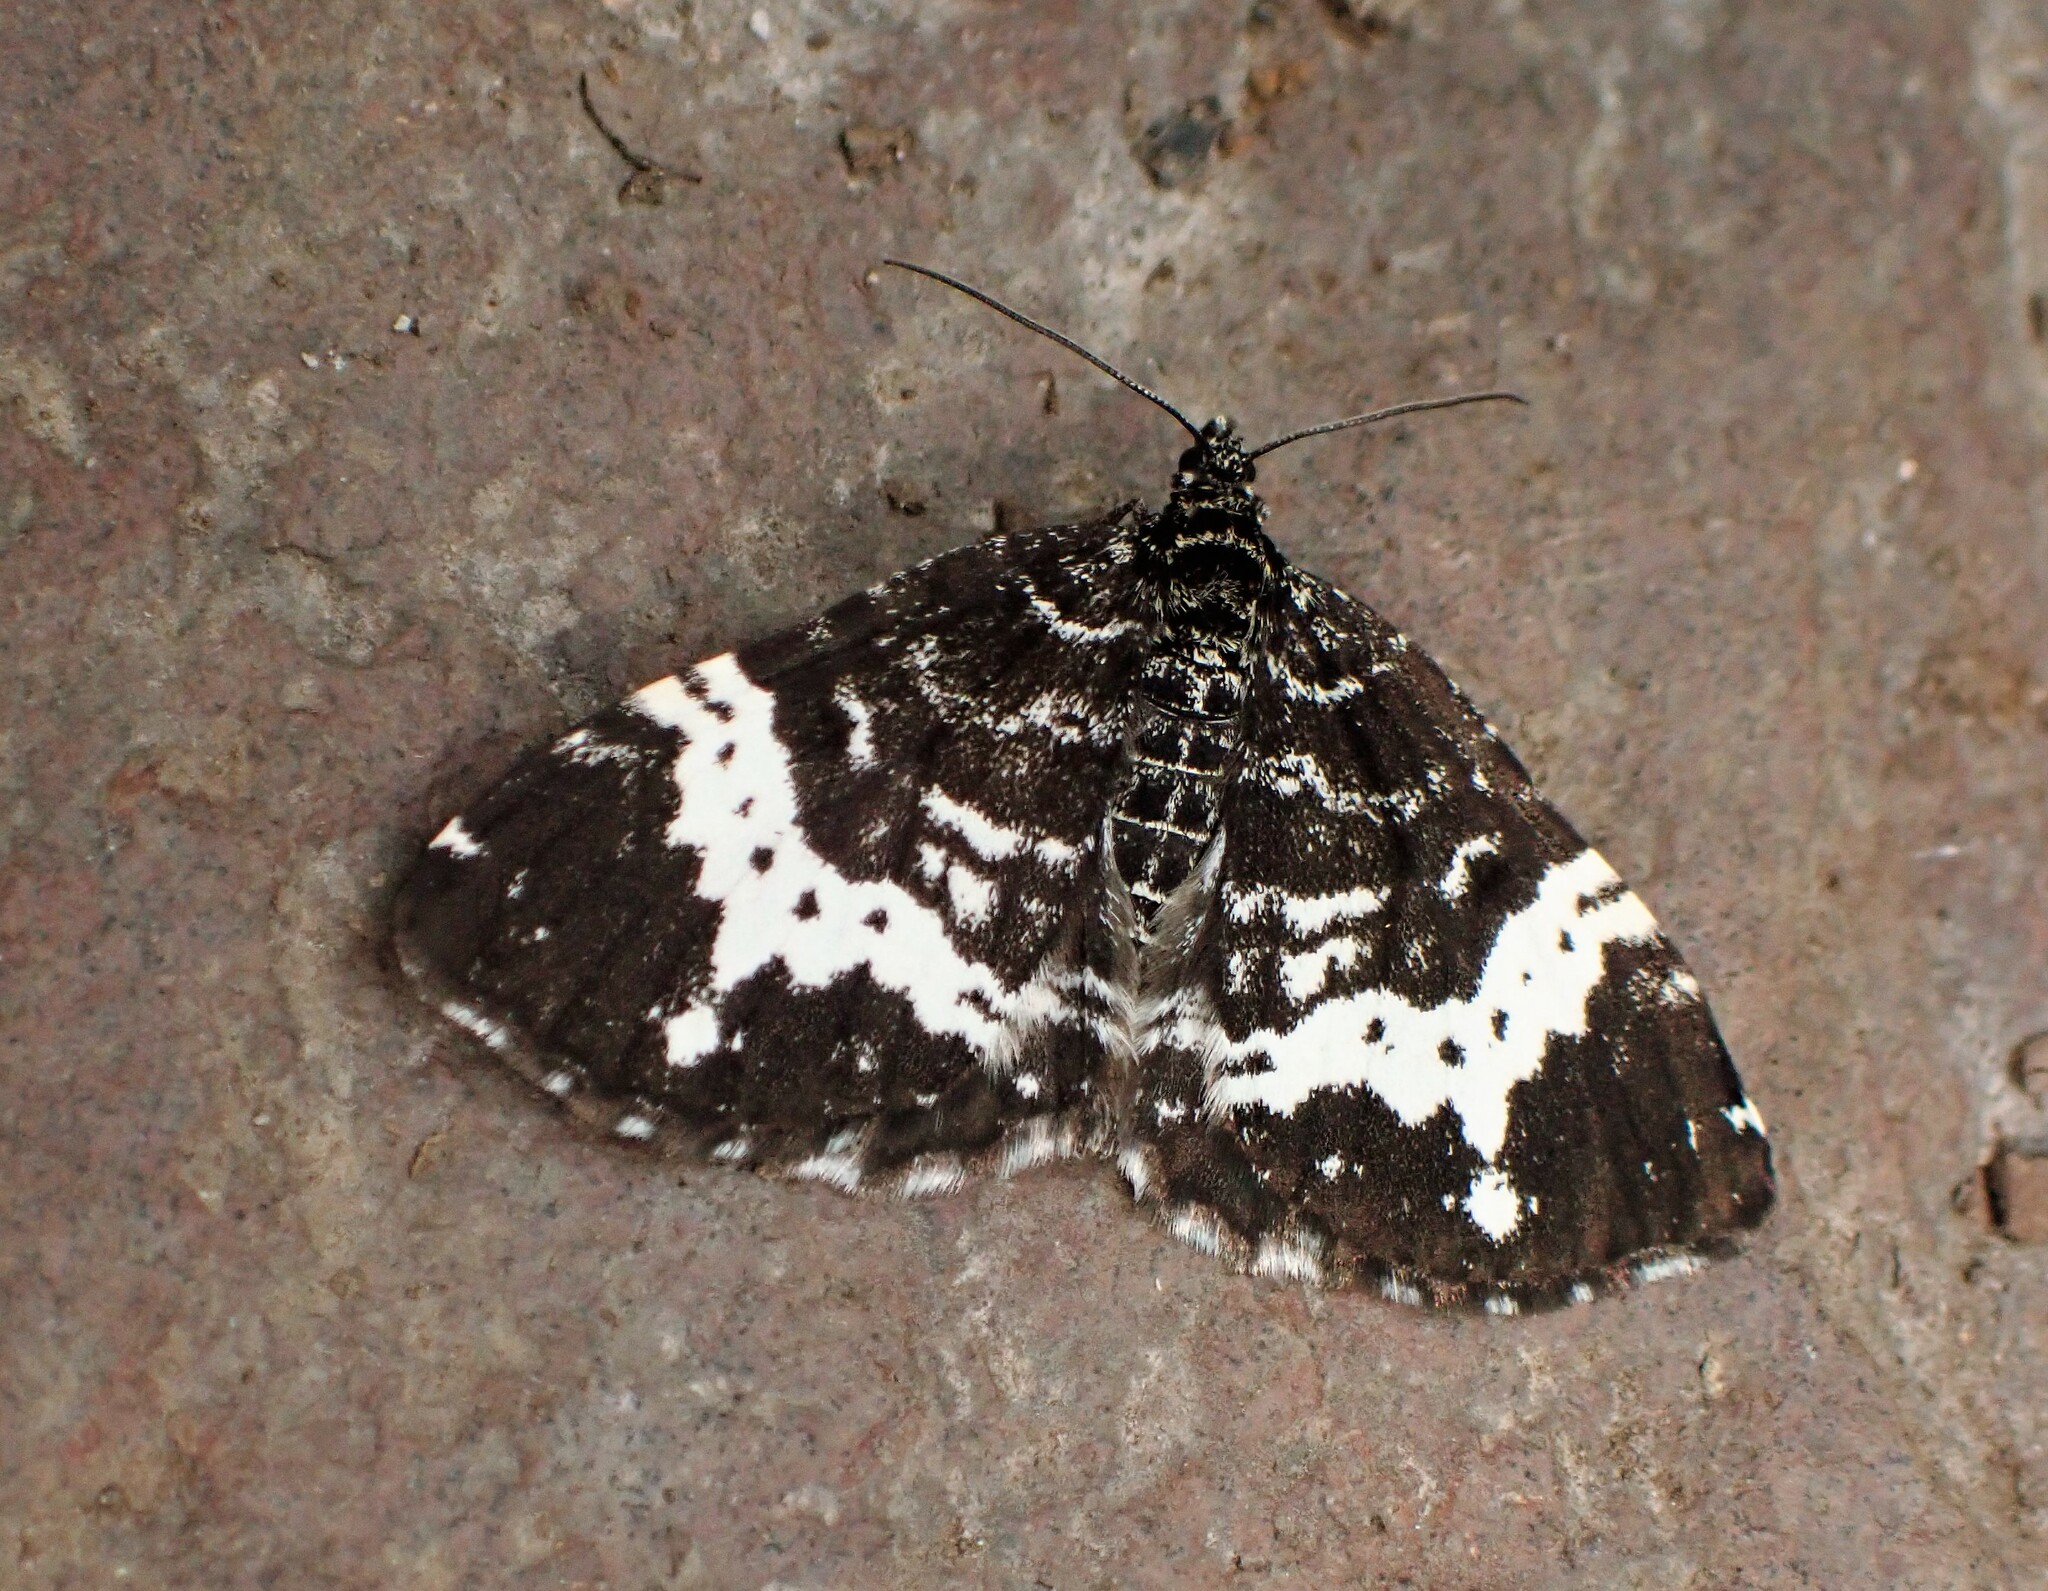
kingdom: Animalia
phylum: Arthropoda
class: Insecta
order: Lepidoptera
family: Geometridae
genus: Rheumaptera
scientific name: Rheumaptera
